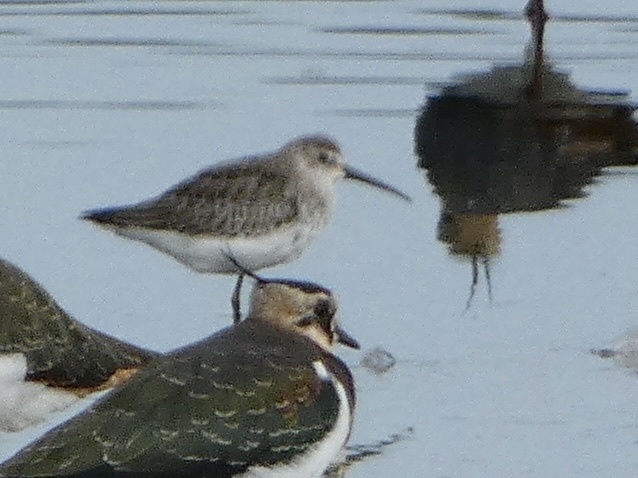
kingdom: Animalia
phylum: Chordata
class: Aves
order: Charadriiformes
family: Scolopacidae
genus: Calidris
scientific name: Calidris ferruginea
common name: Curlew sandpiper
